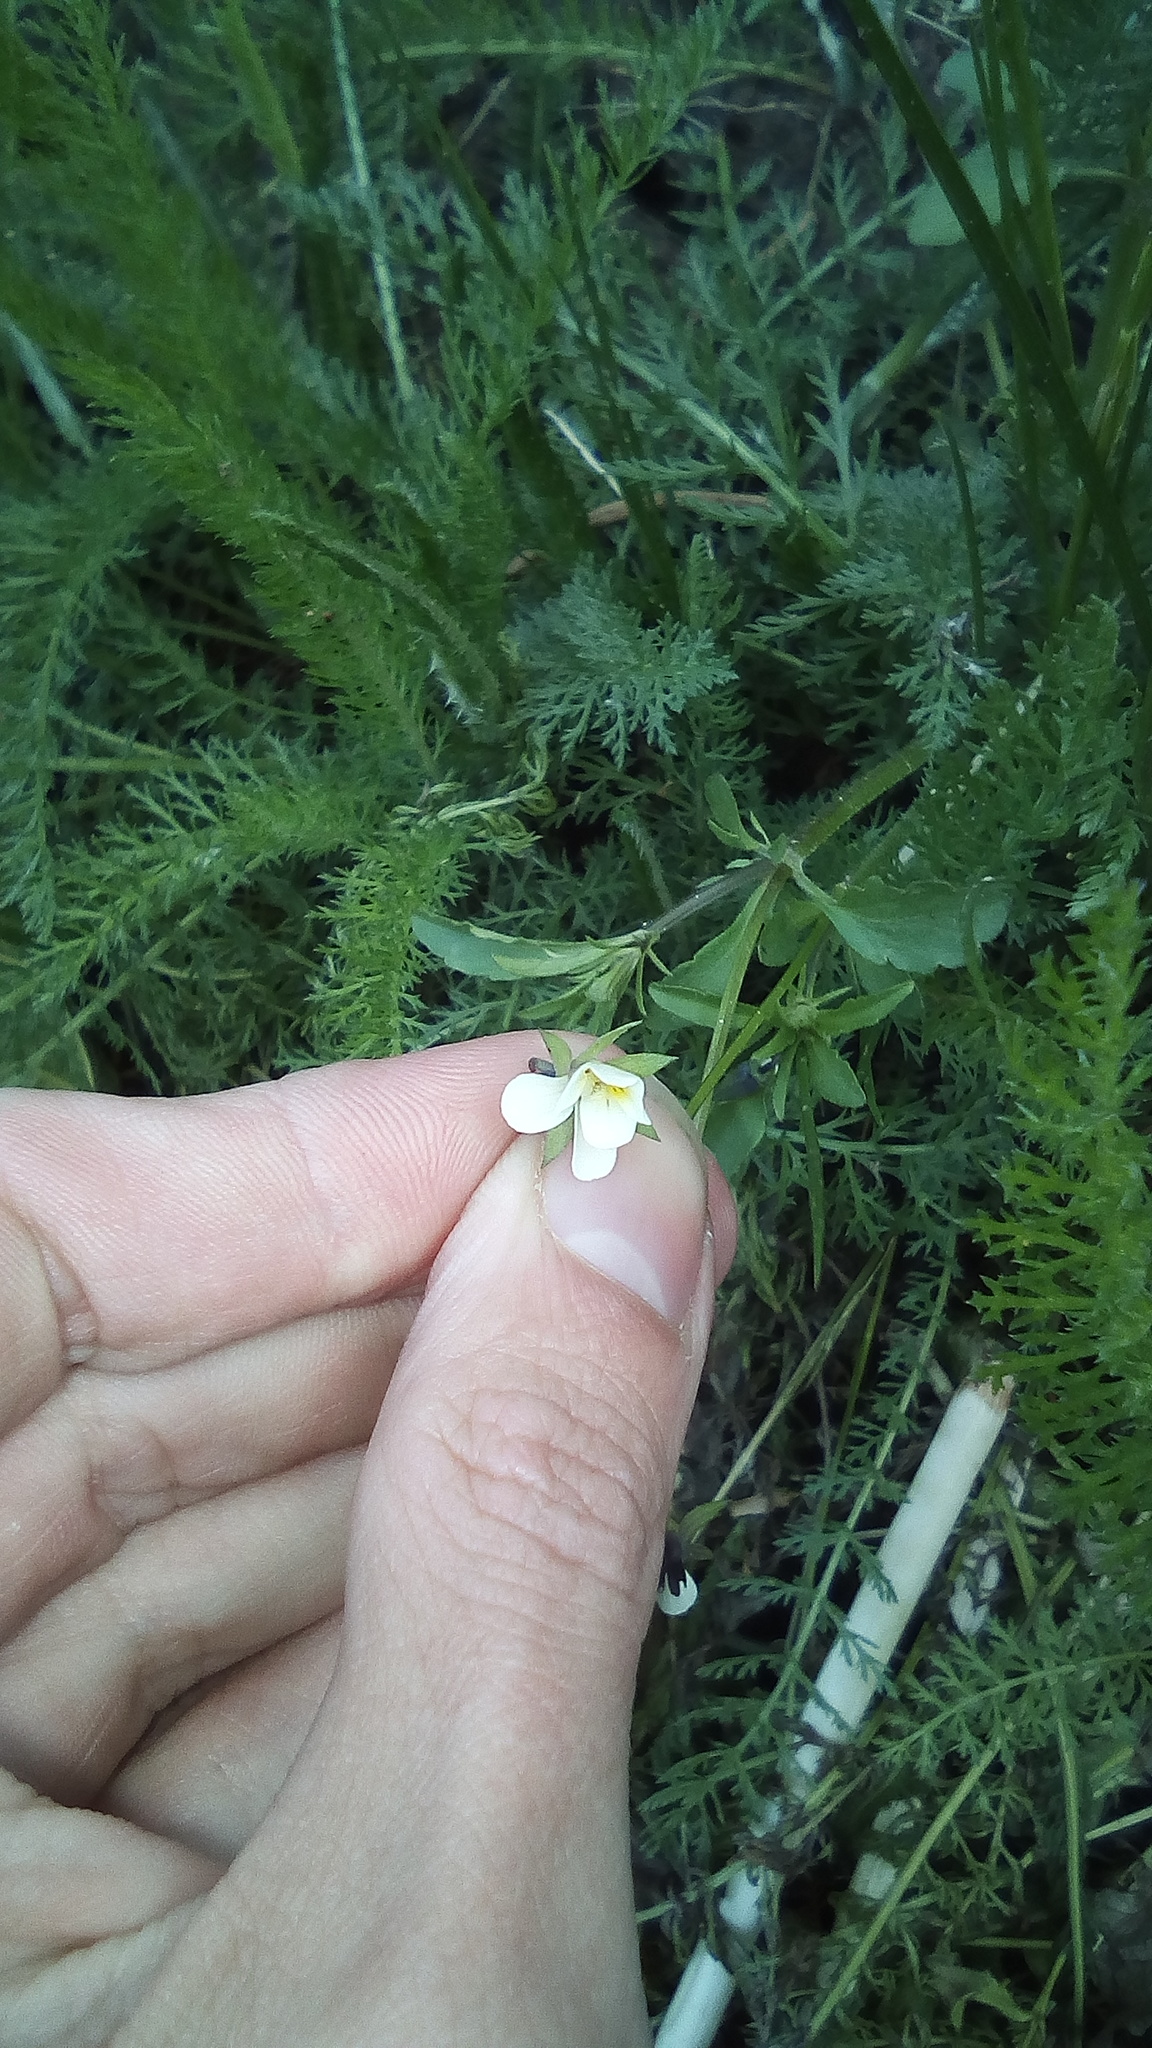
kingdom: Plantae
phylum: Tracheophyta
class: Magnoliopsida
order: Malpighiales
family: Violaceae
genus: Viola
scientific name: Viola arvensis
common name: Field pansy
